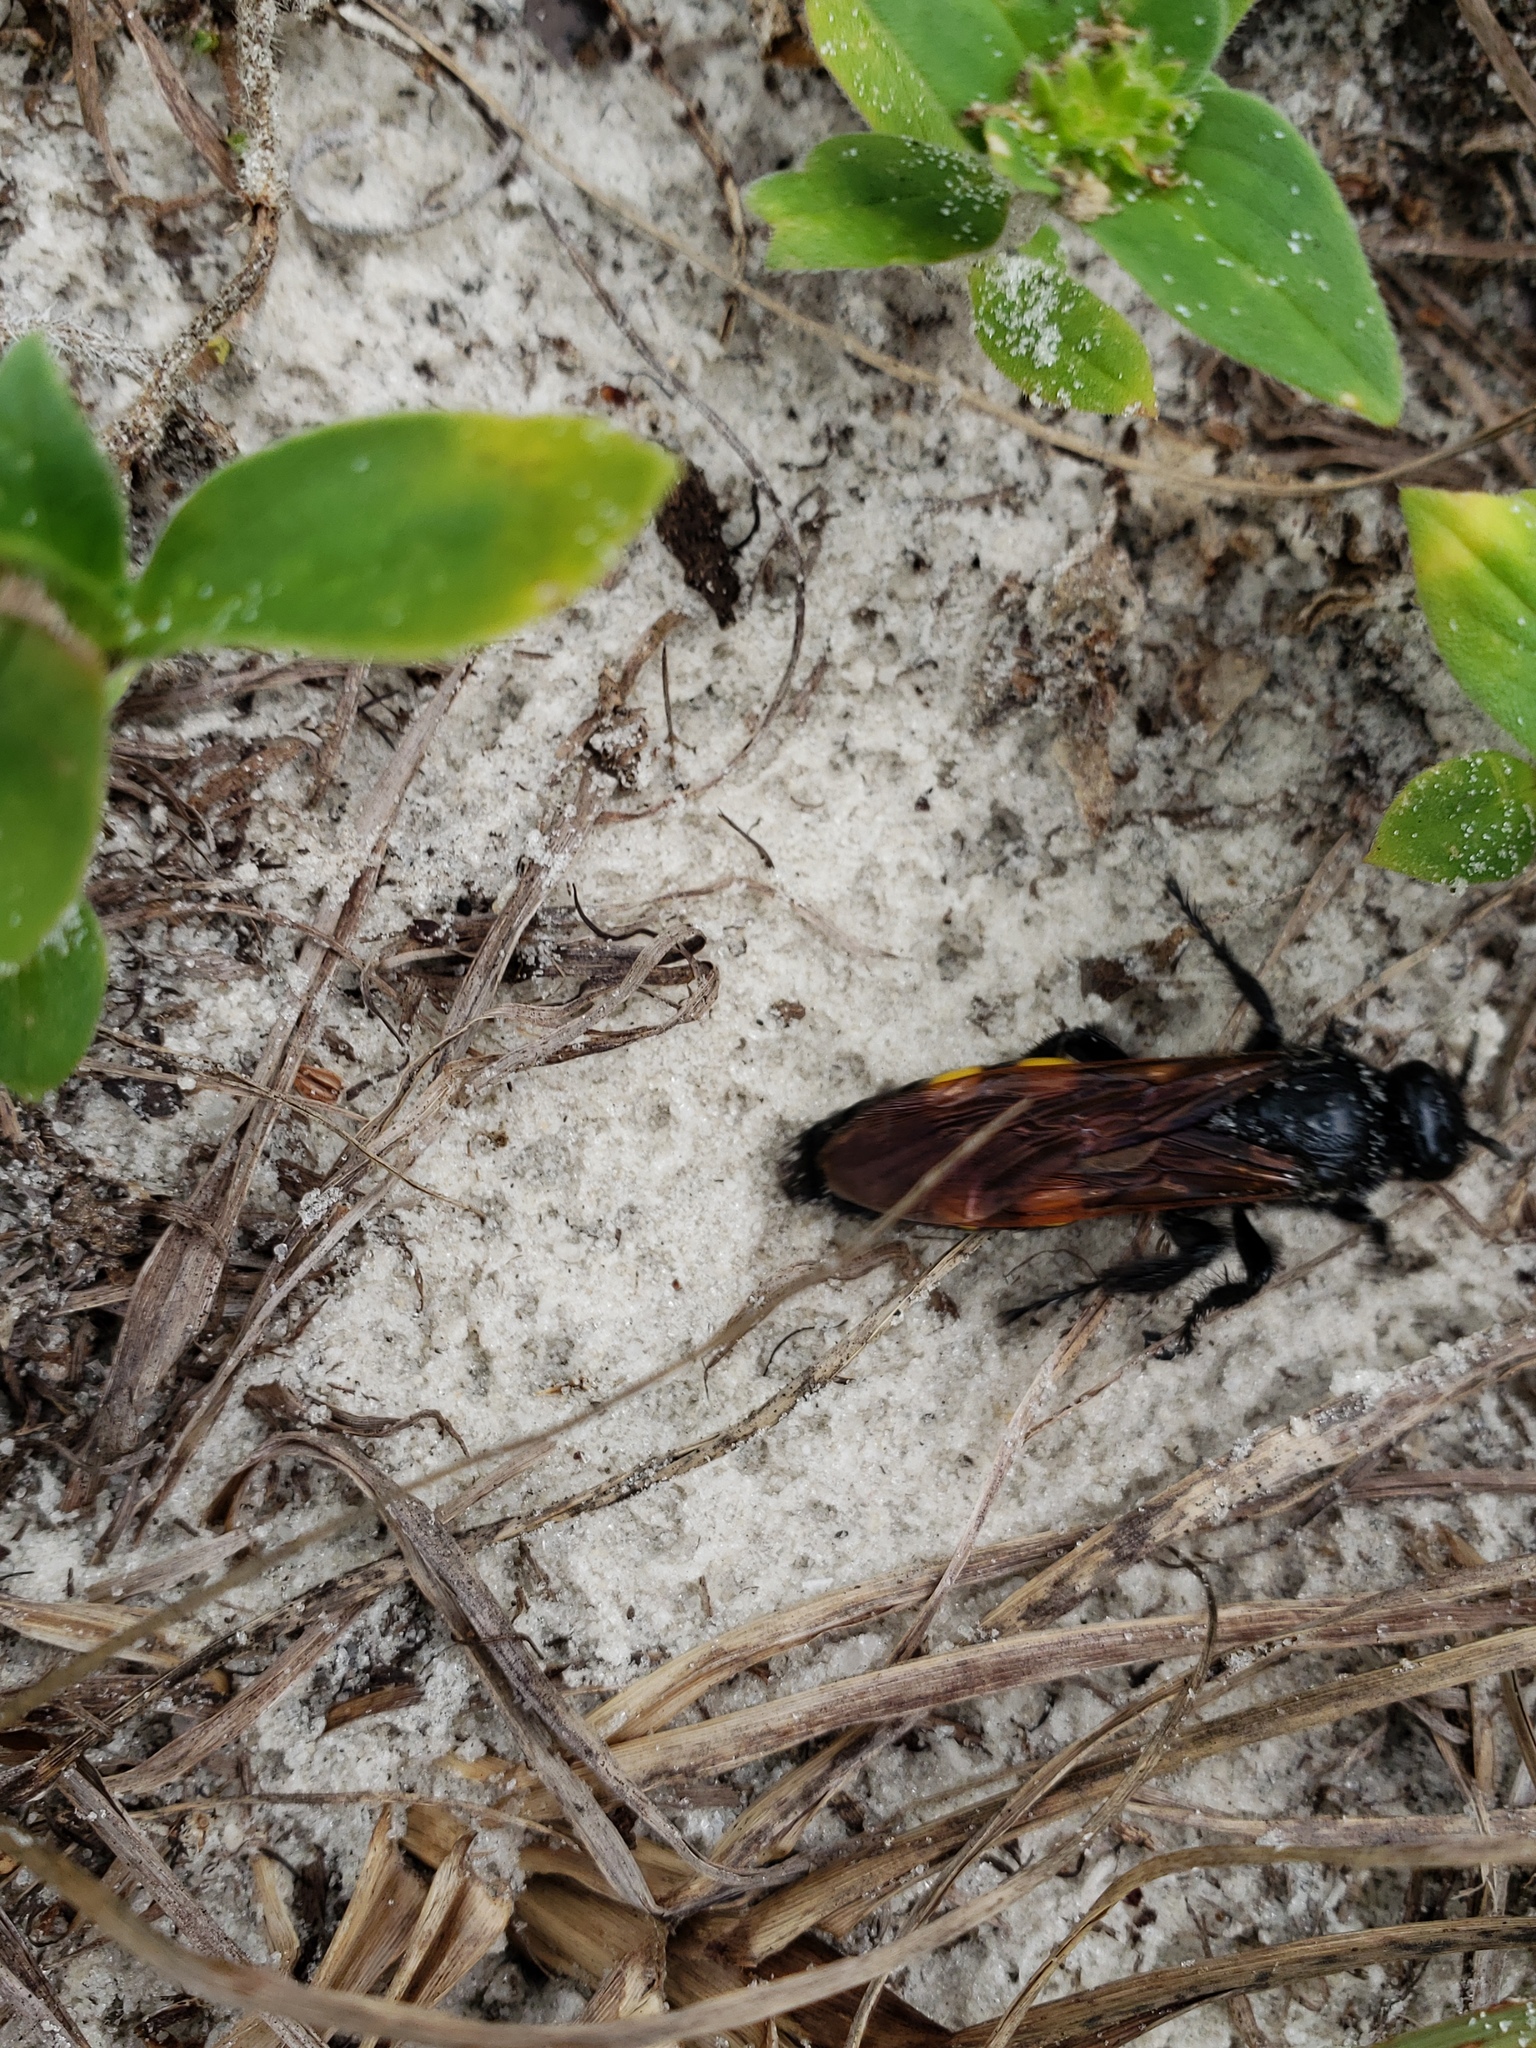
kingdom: Animalia
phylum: Arthropoda
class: Insecta
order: Hymenoptera
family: Scoliidae
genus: Pygodasis
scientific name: Pygodasis
